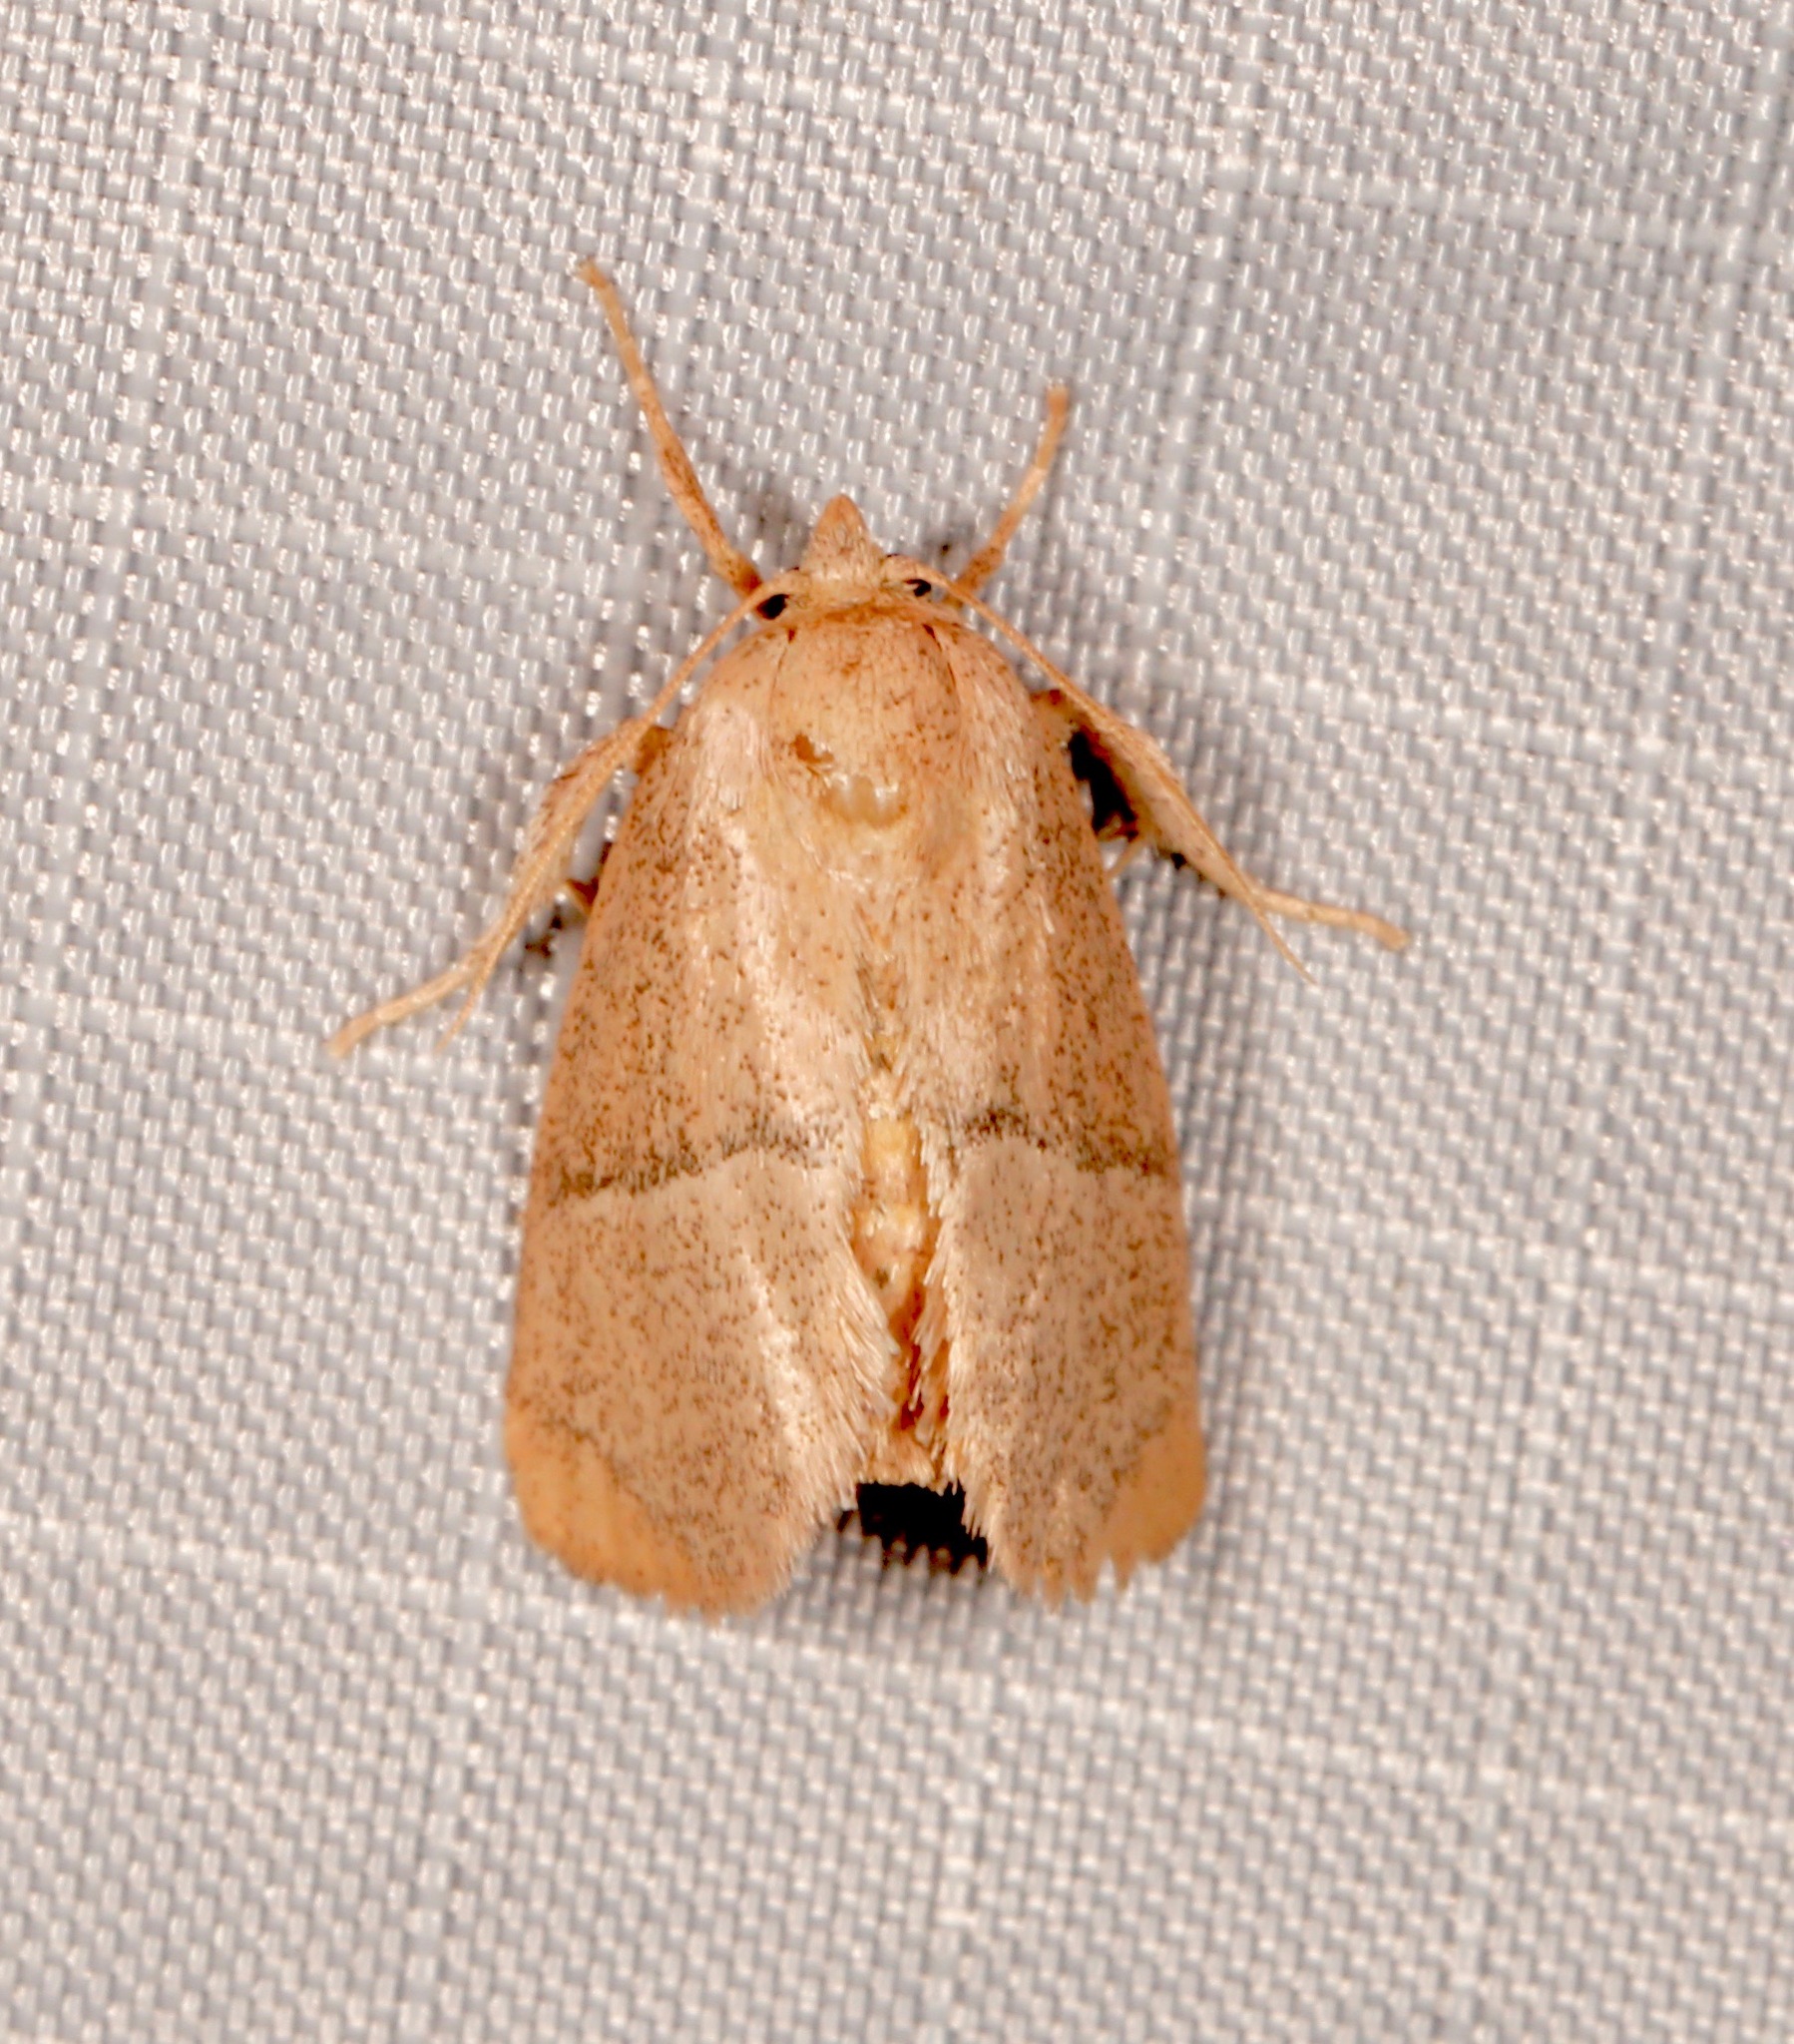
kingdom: Animalia
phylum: Arthropoda
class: Insecta
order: Lepidoptera
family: Limacodidae
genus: Apoda
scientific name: Apoda rectilinea
